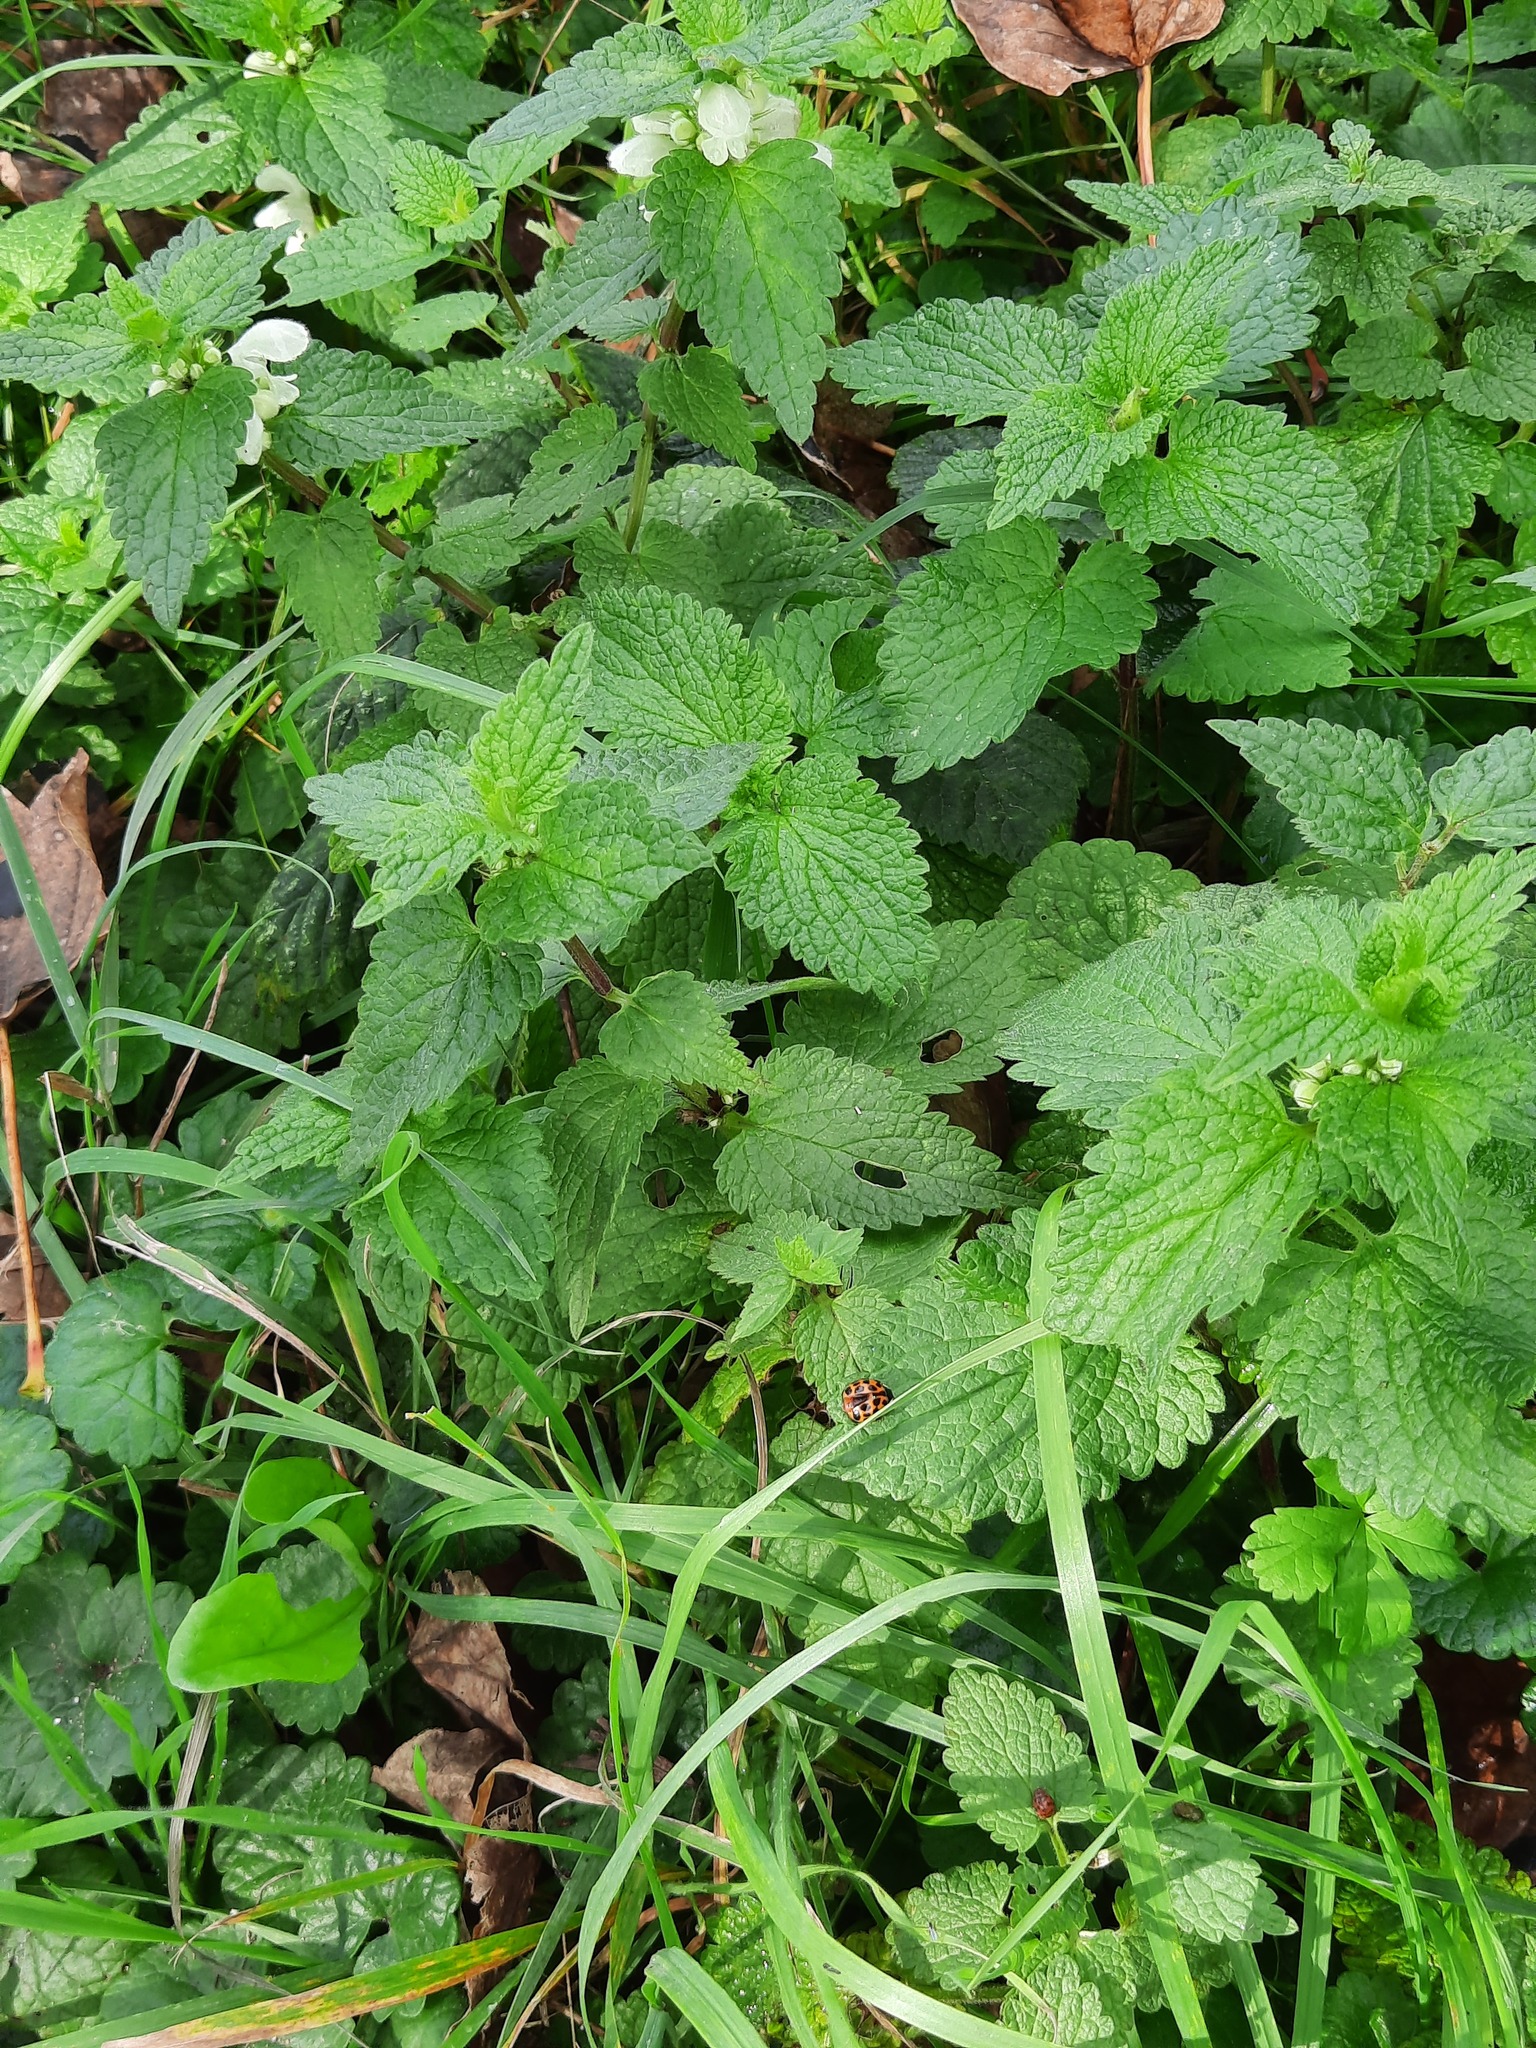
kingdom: Plantae
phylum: Tracheophyta
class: Magnoliopsida
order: Lamiales
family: Lamiaceae
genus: Lamium
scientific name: Lamium album
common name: White dead-nettle
